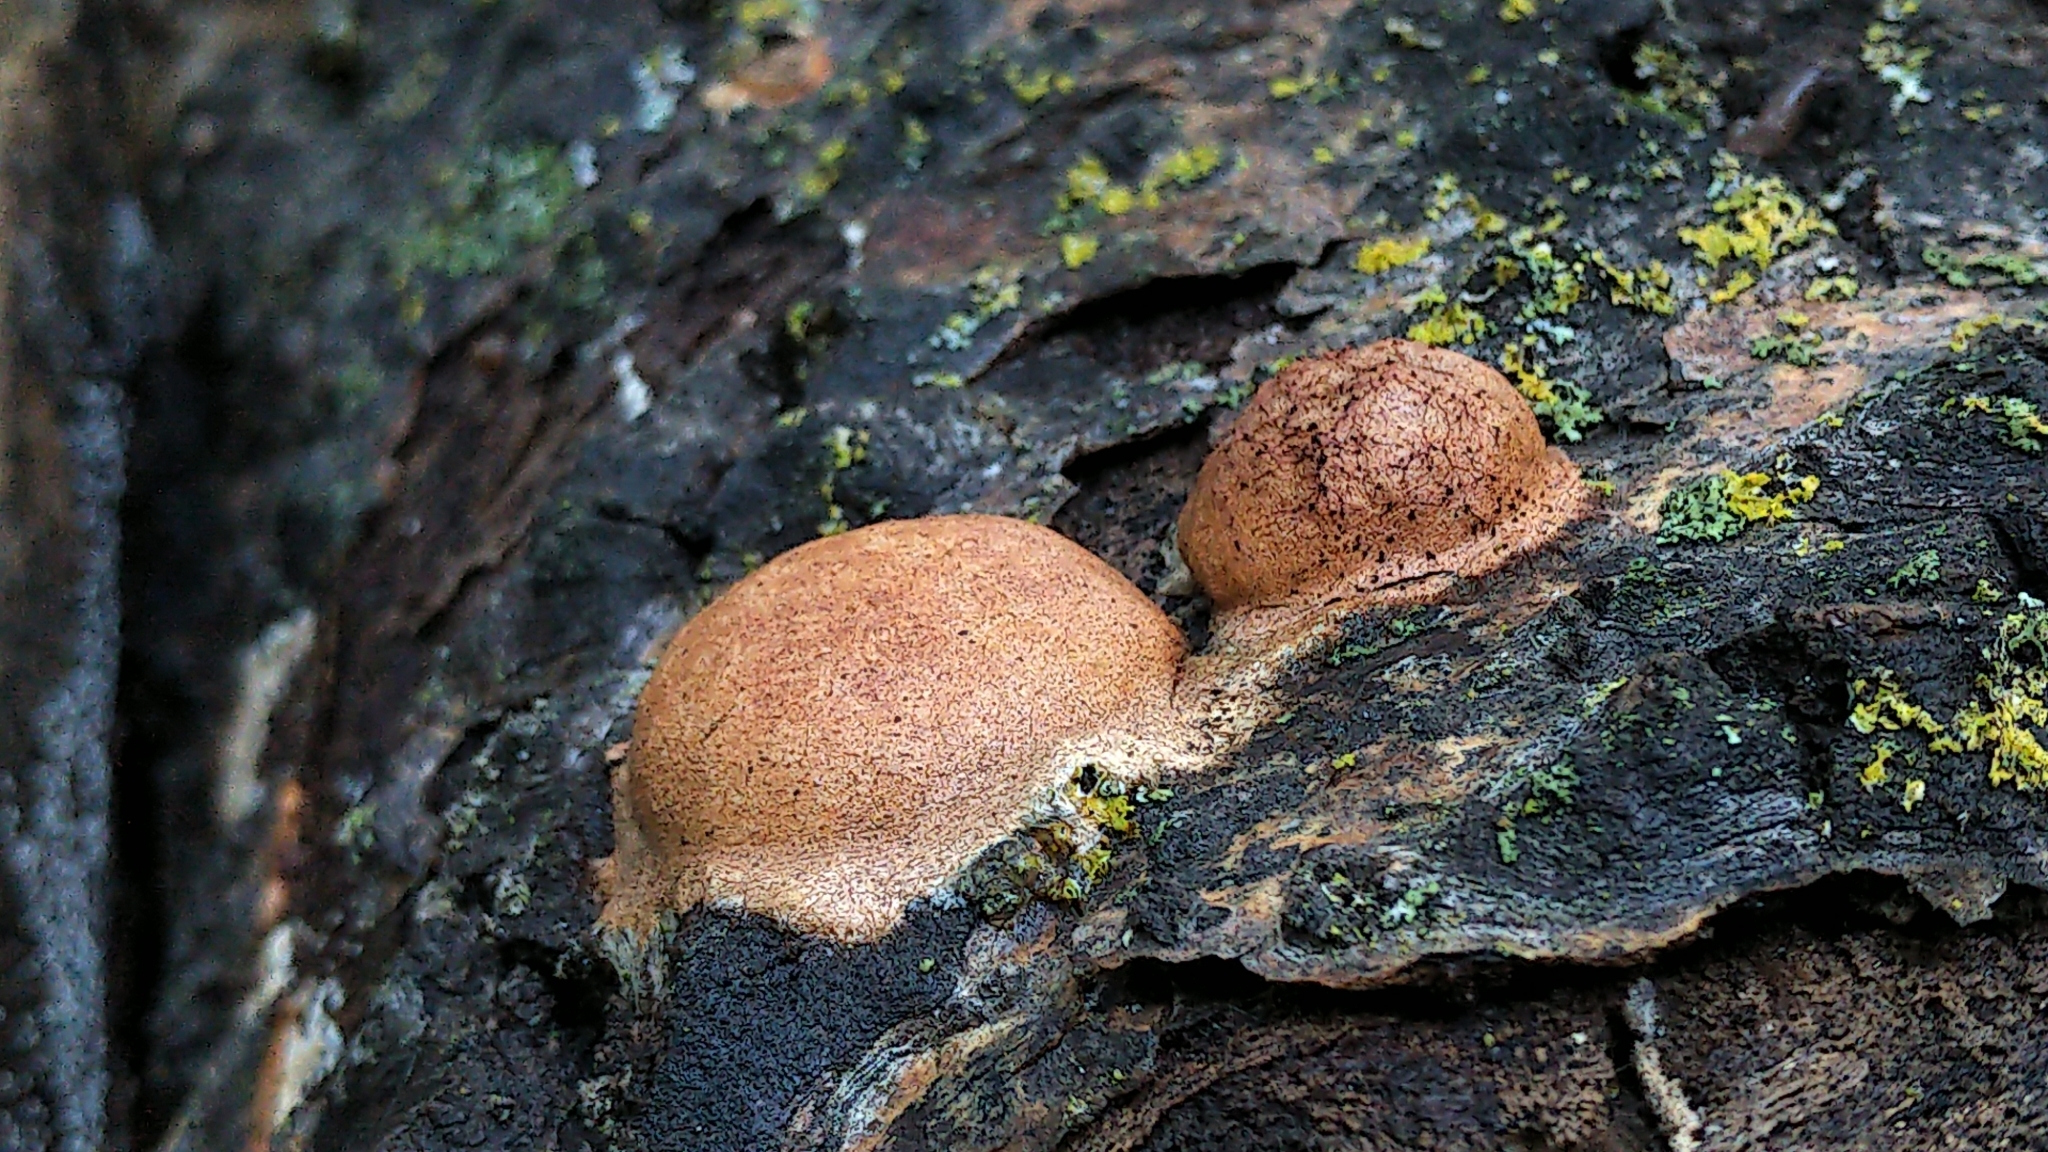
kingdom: Protozoa
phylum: Mycetozoa
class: Myxomycetes
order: Physarales
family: Physaraceae
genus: Fuligo
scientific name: Fuligo leviderma
